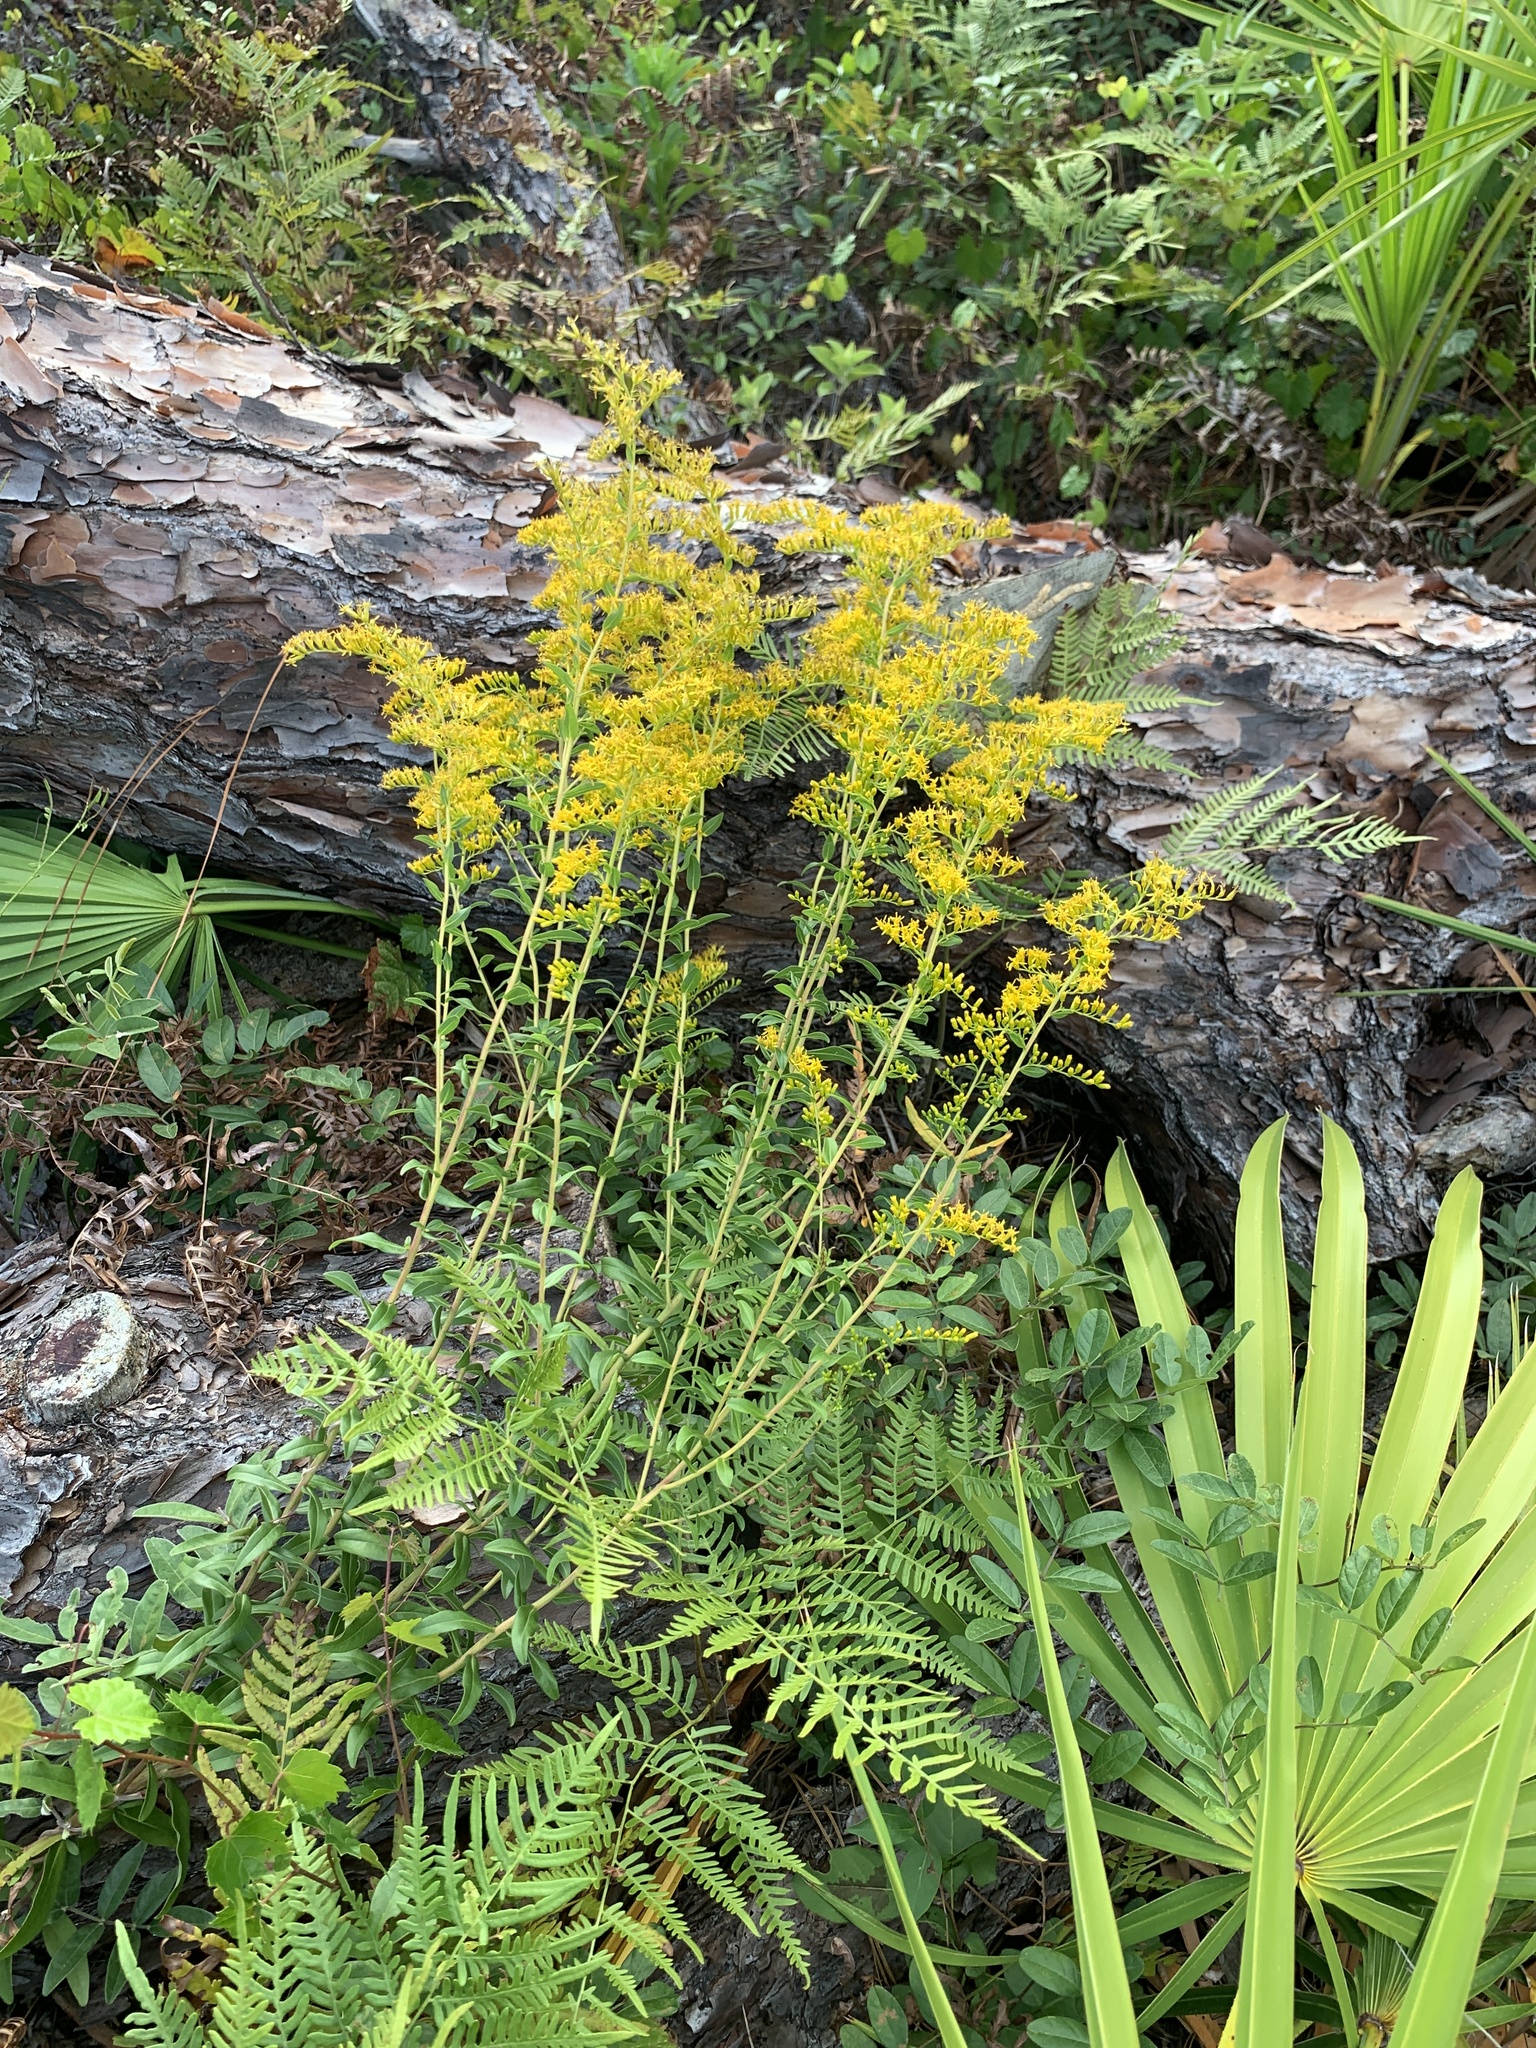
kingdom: Plantae
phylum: Tracheophyta
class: Magnoliopsida
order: Asterales
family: Asteraceae
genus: Solidago
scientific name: Solidago chapmanii
